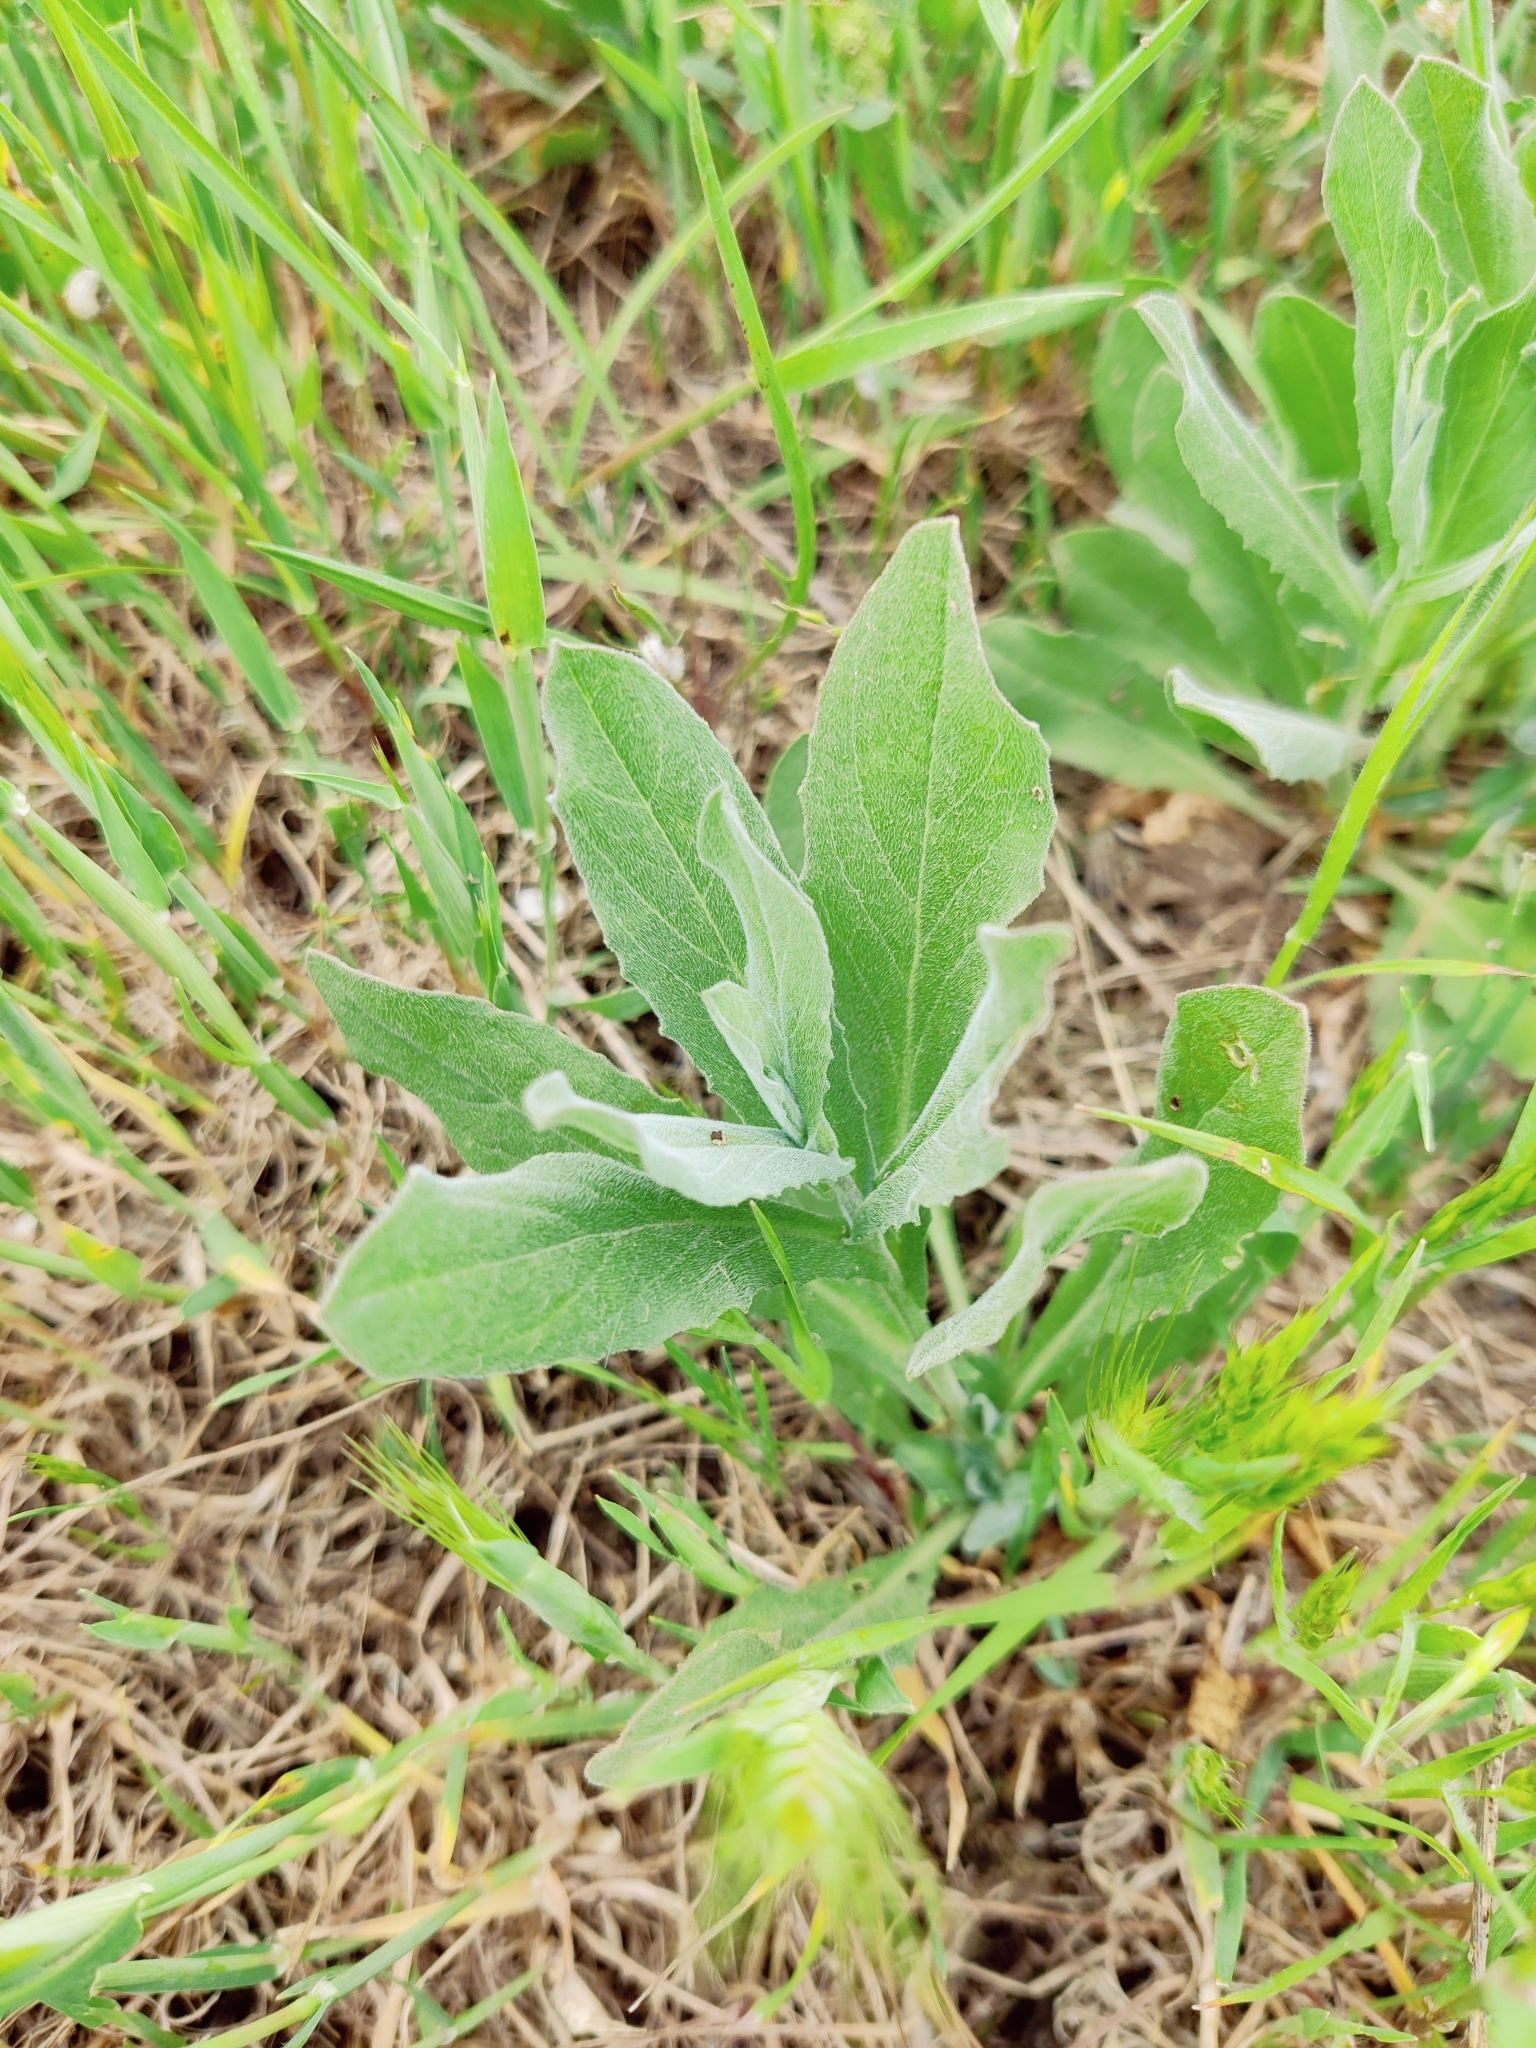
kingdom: Plantae
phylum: Tracheophyta
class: Magnoliopsida
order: Brassicales
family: Brassicaceae
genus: Lepidium
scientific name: Lepidium draba
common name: Hoary cress
